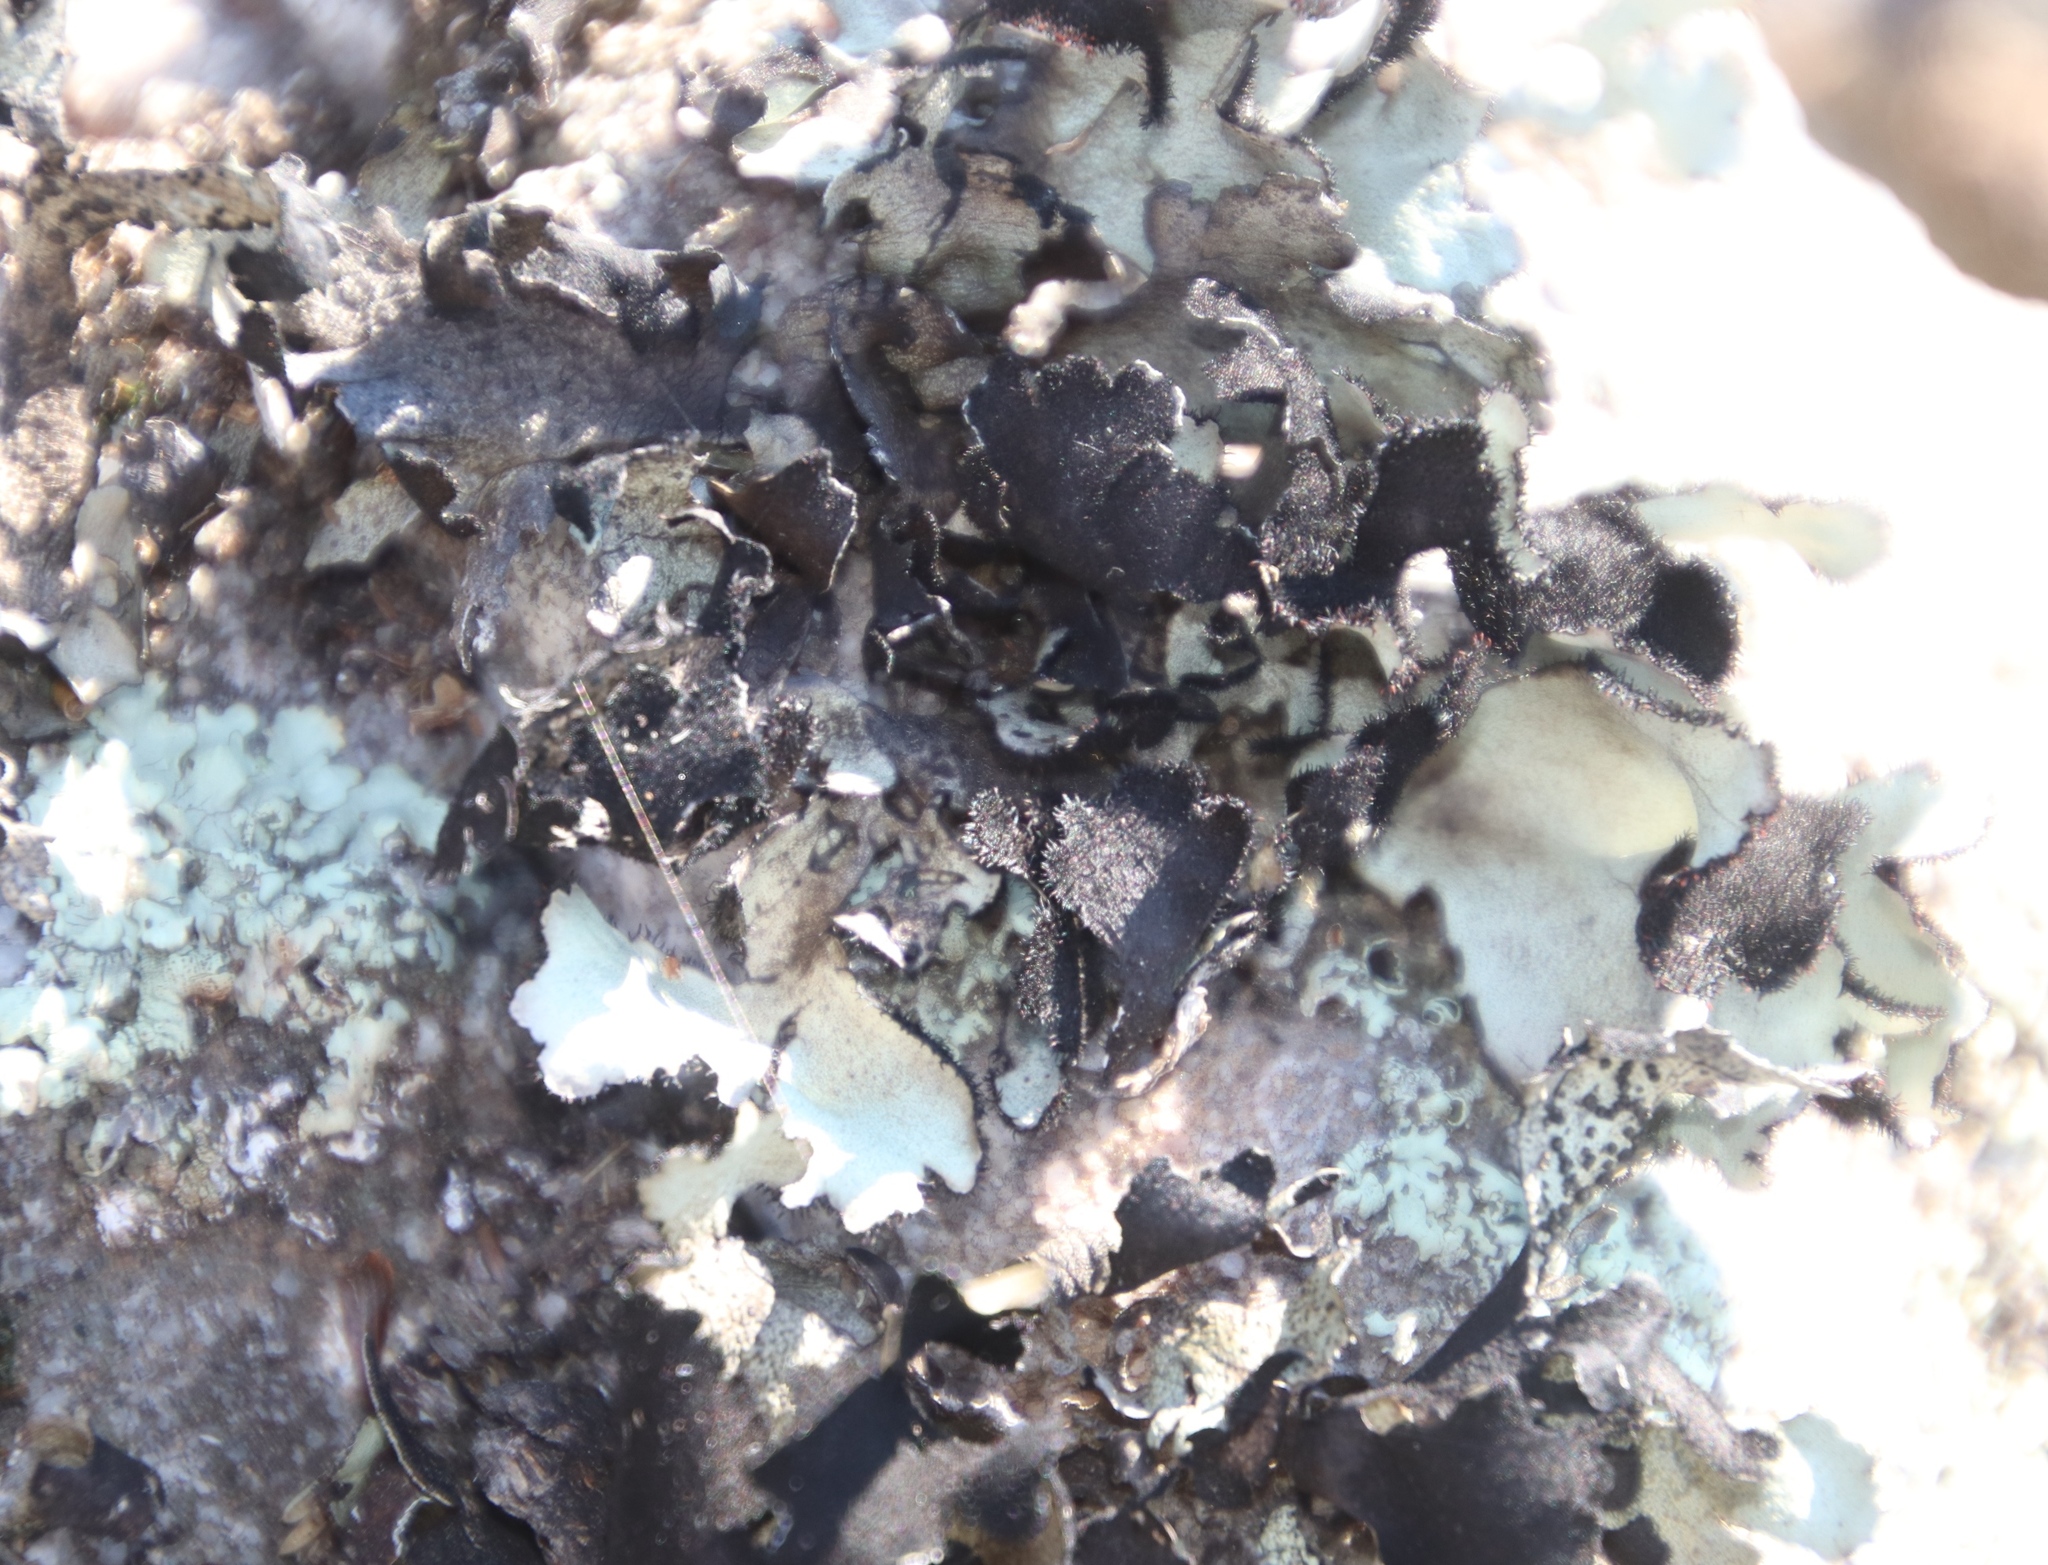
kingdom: Fungi
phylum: Ascomycota
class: Lecanoromycetes
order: Lecanorales
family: Parmeliaceae
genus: Xanthoparmelia
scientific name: Xanthoparmelia hottentotta
